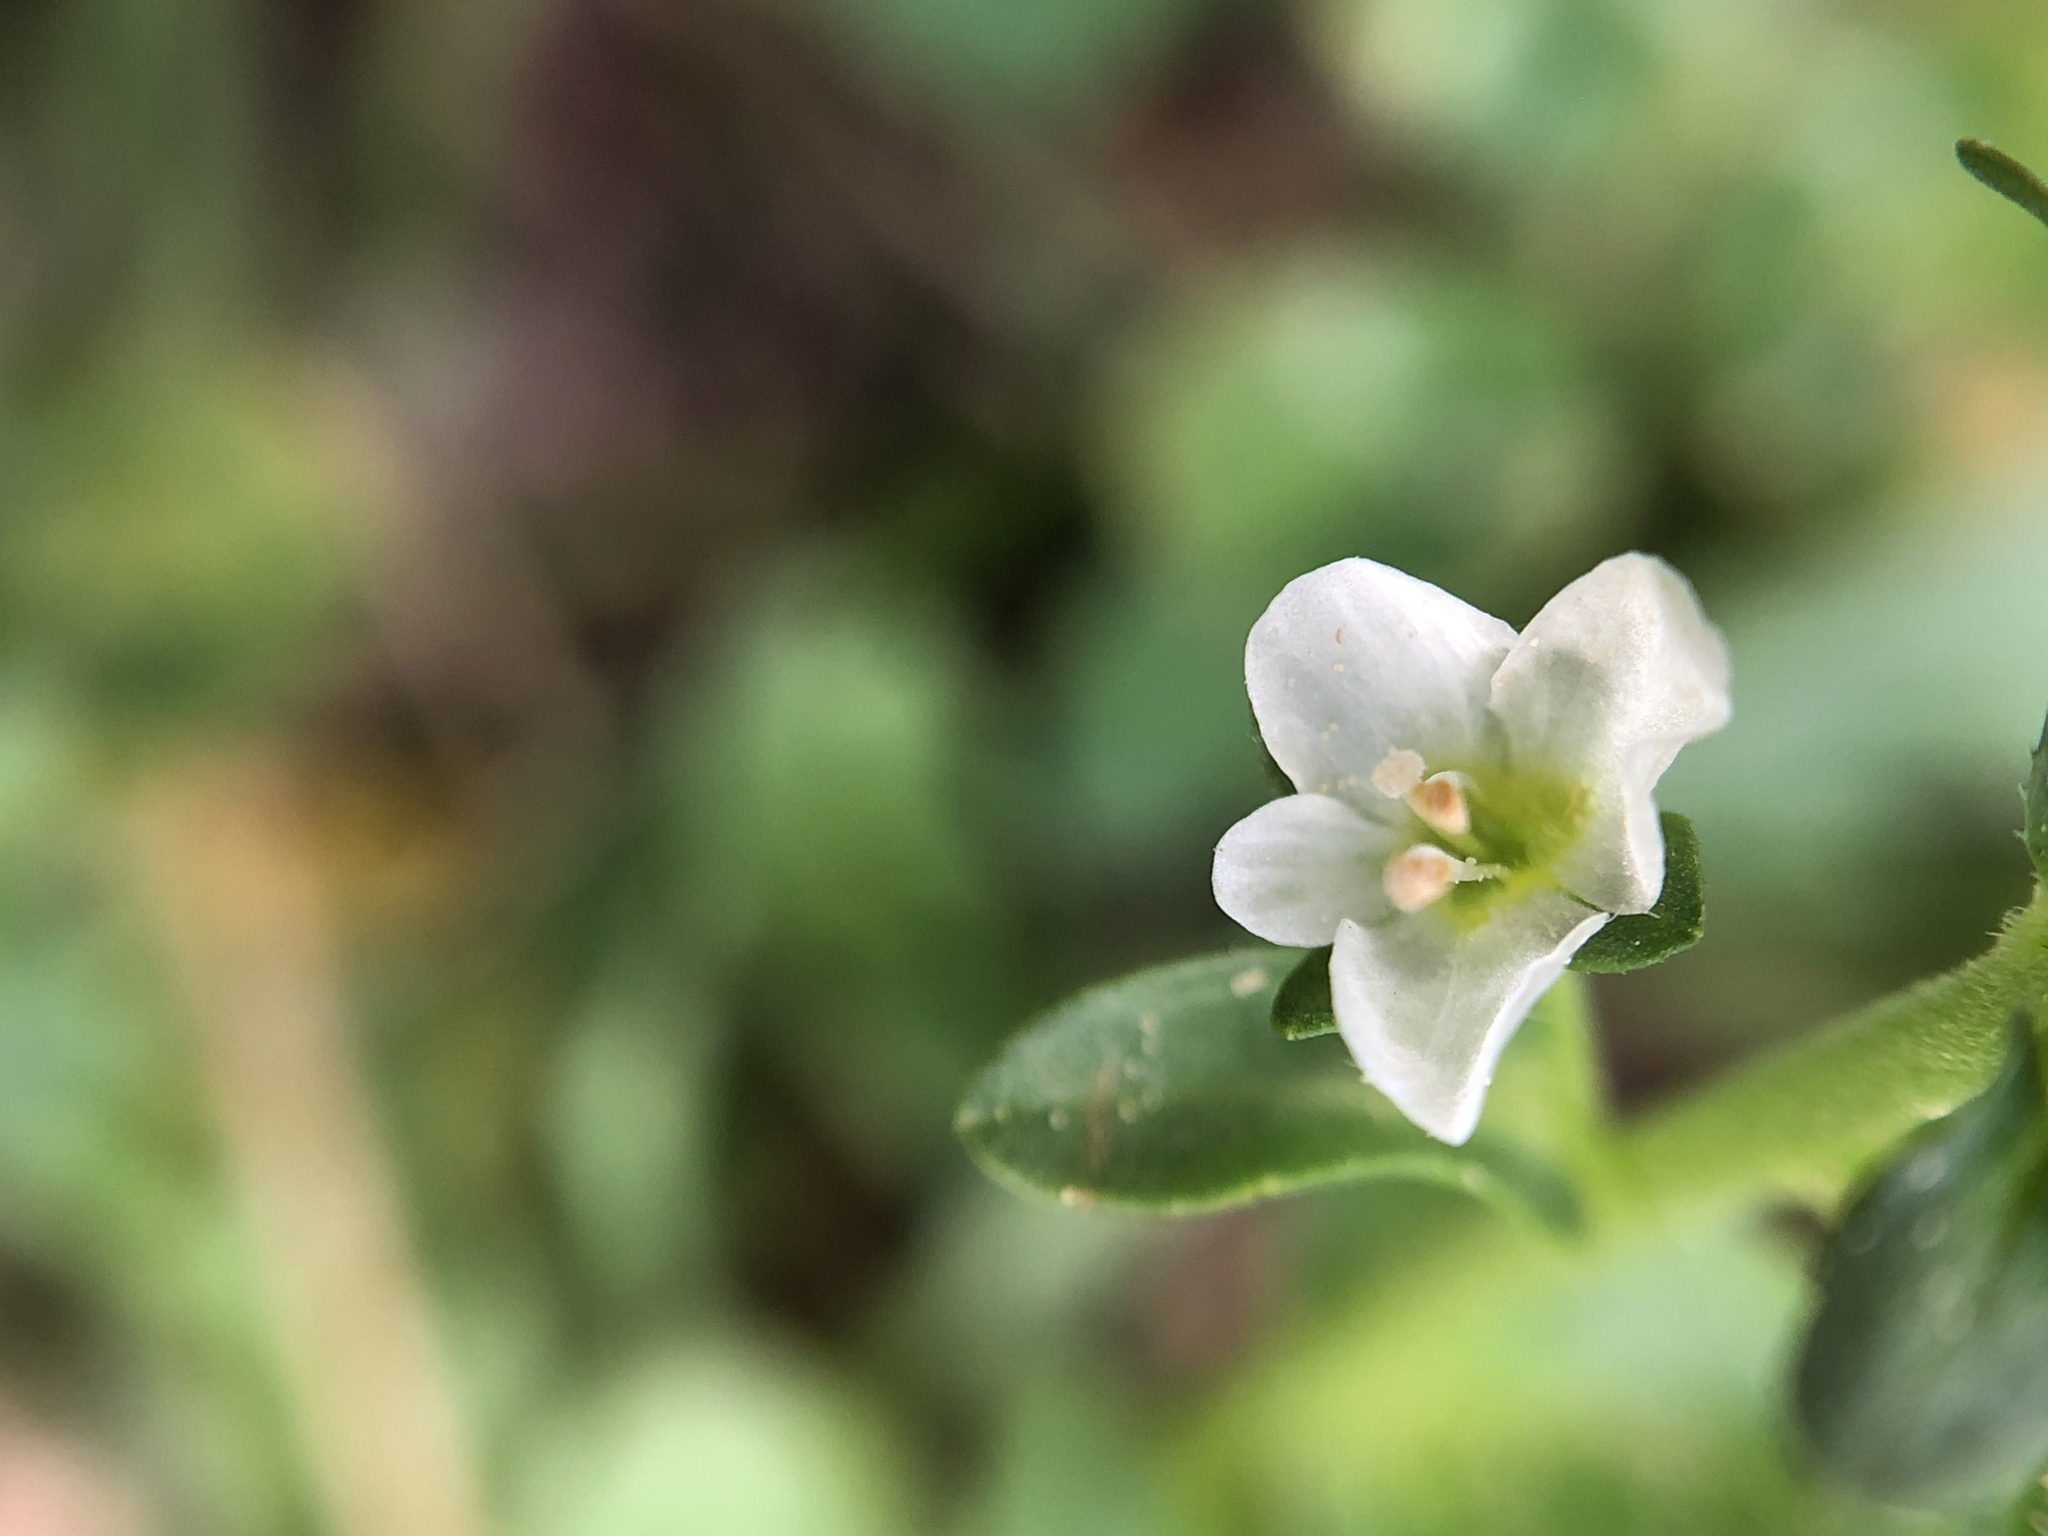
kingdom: Plantae
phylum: Tracheophyta
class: Magnoliopsida
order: Lamiales
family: Plantaginaceae
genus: Veronica
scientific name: Veronica serpyllifolia
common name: Thyme-leaved speedwell
